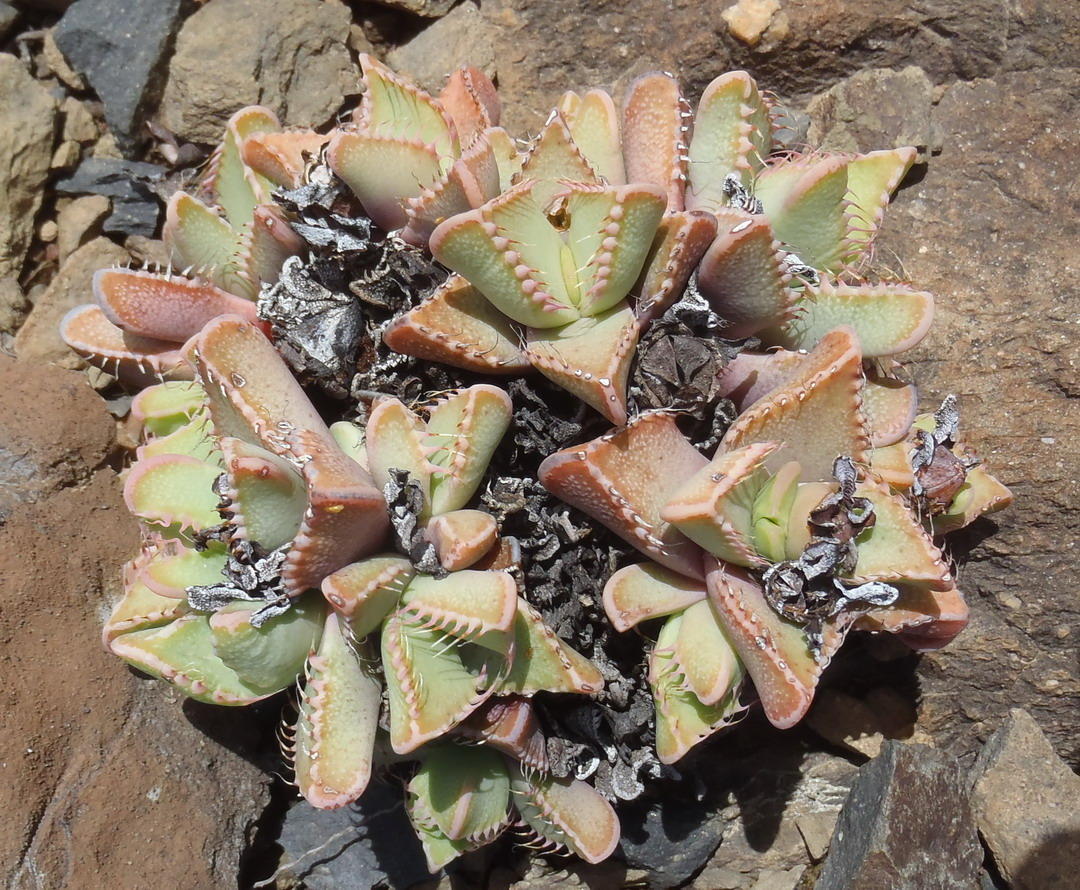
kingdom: Plantae
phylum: Tracheophyta
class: Magnoliopsida
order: Caryophyllales
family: Aizoaceae
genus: Faucaria
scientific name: Faucaria tigrina
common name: Tiger's-jaw
